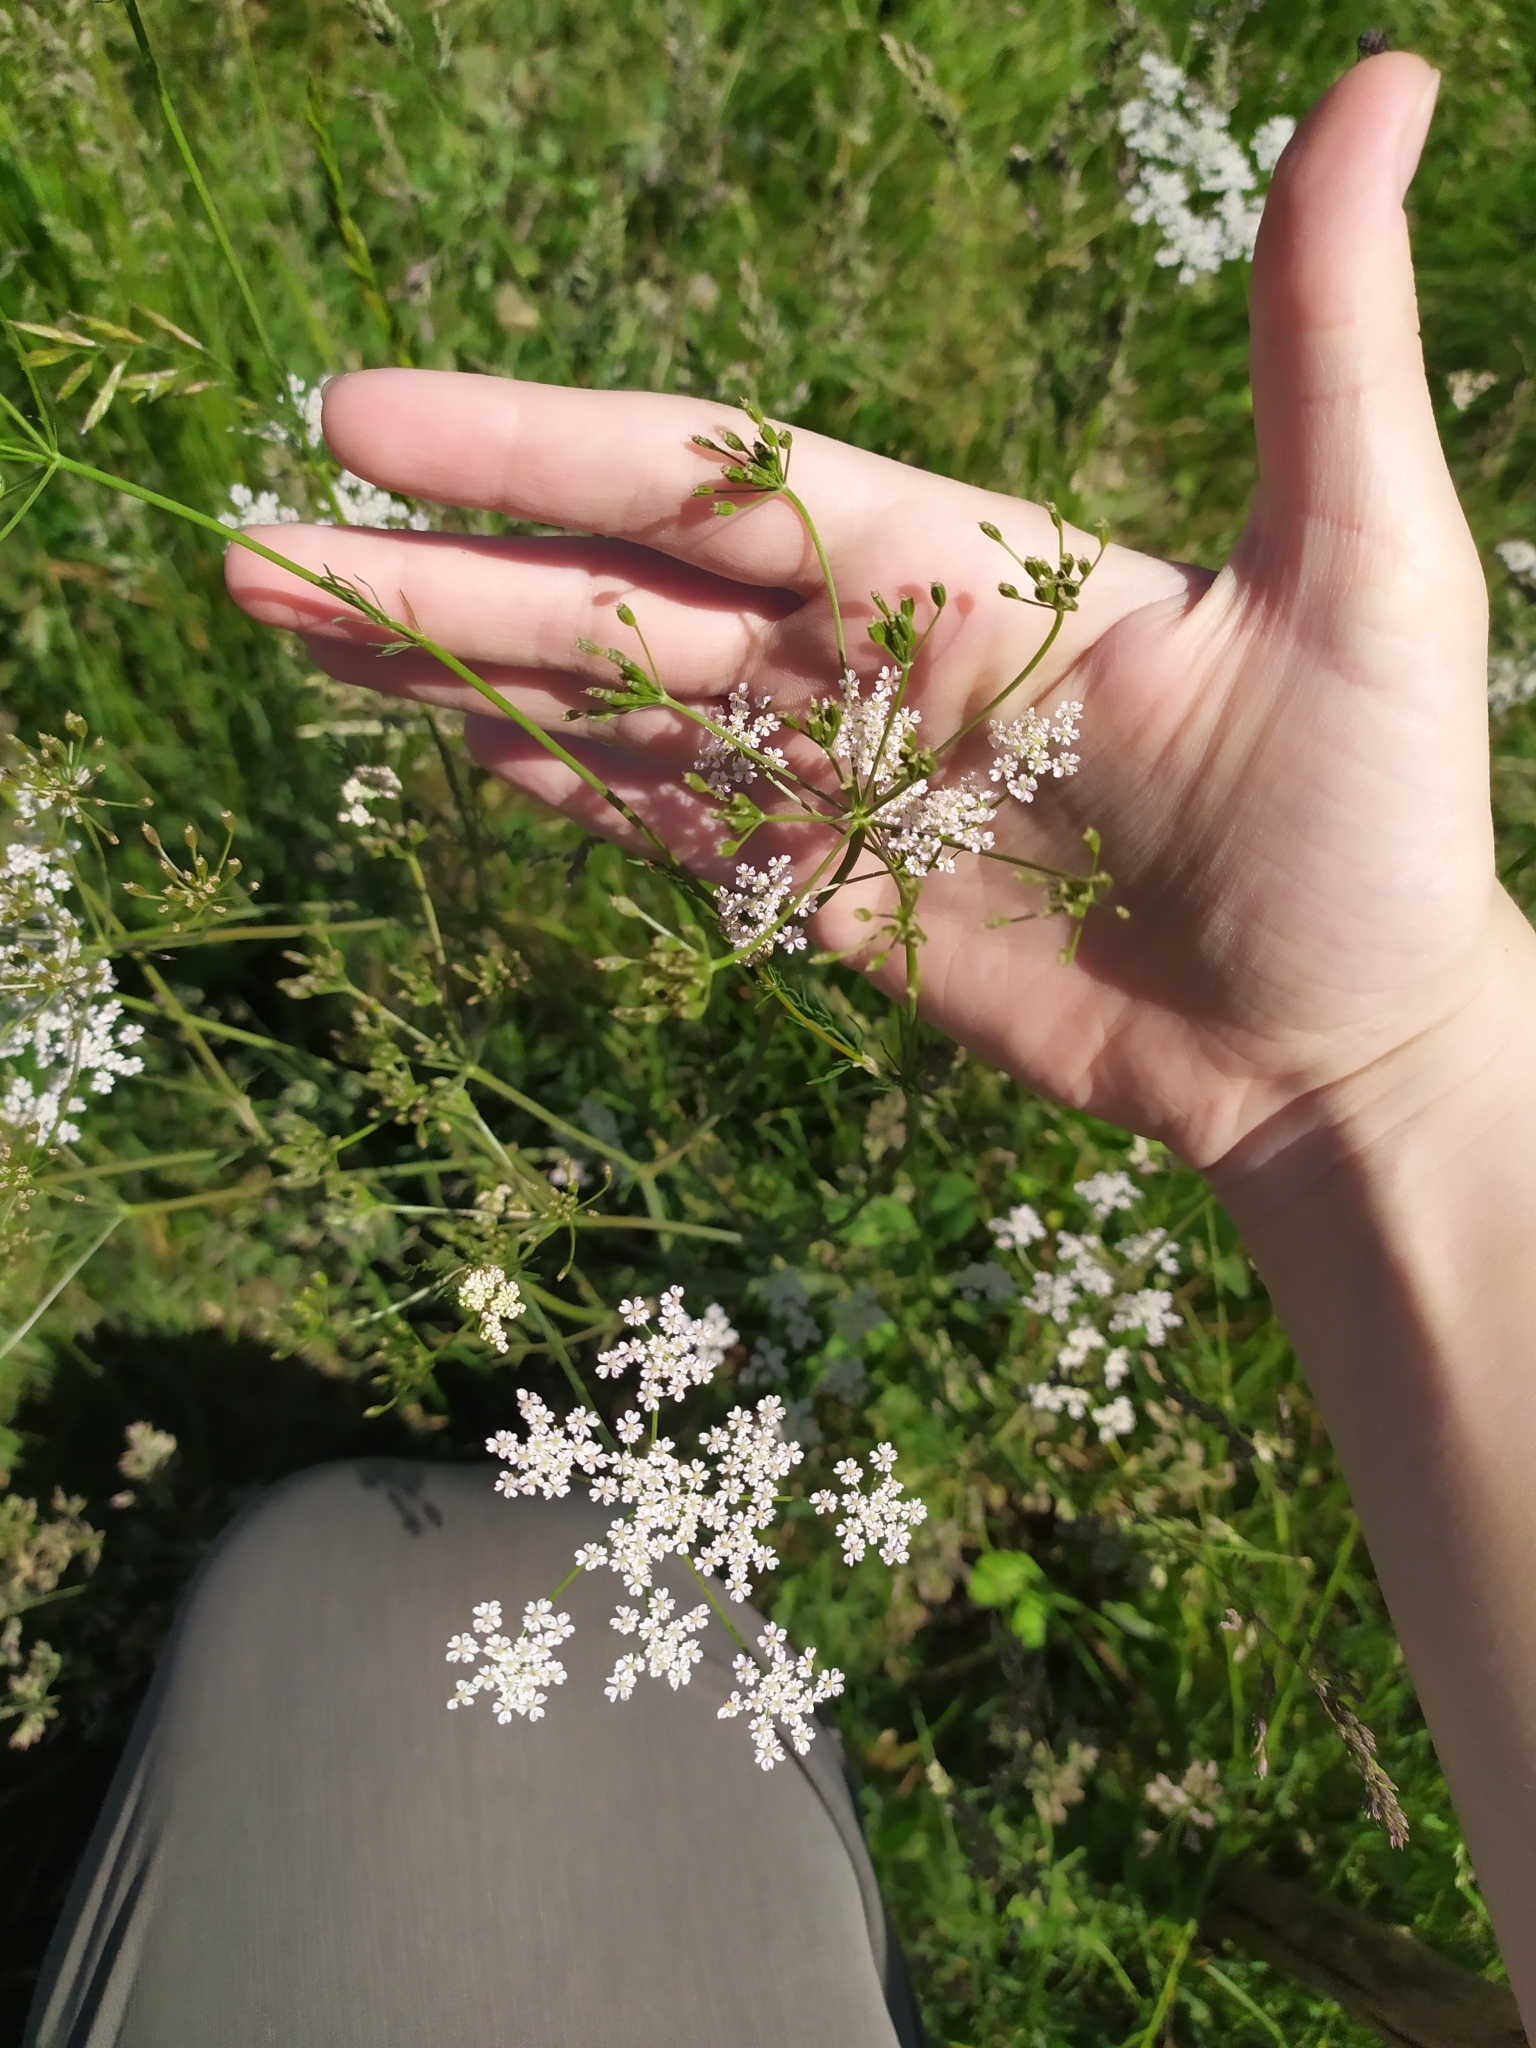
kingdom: Plantae
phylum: Tracheophyta
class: Magnoliopsida
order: Apiales
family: Apiaceae
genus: Carum
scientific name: Carum carvi
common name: Caraway
